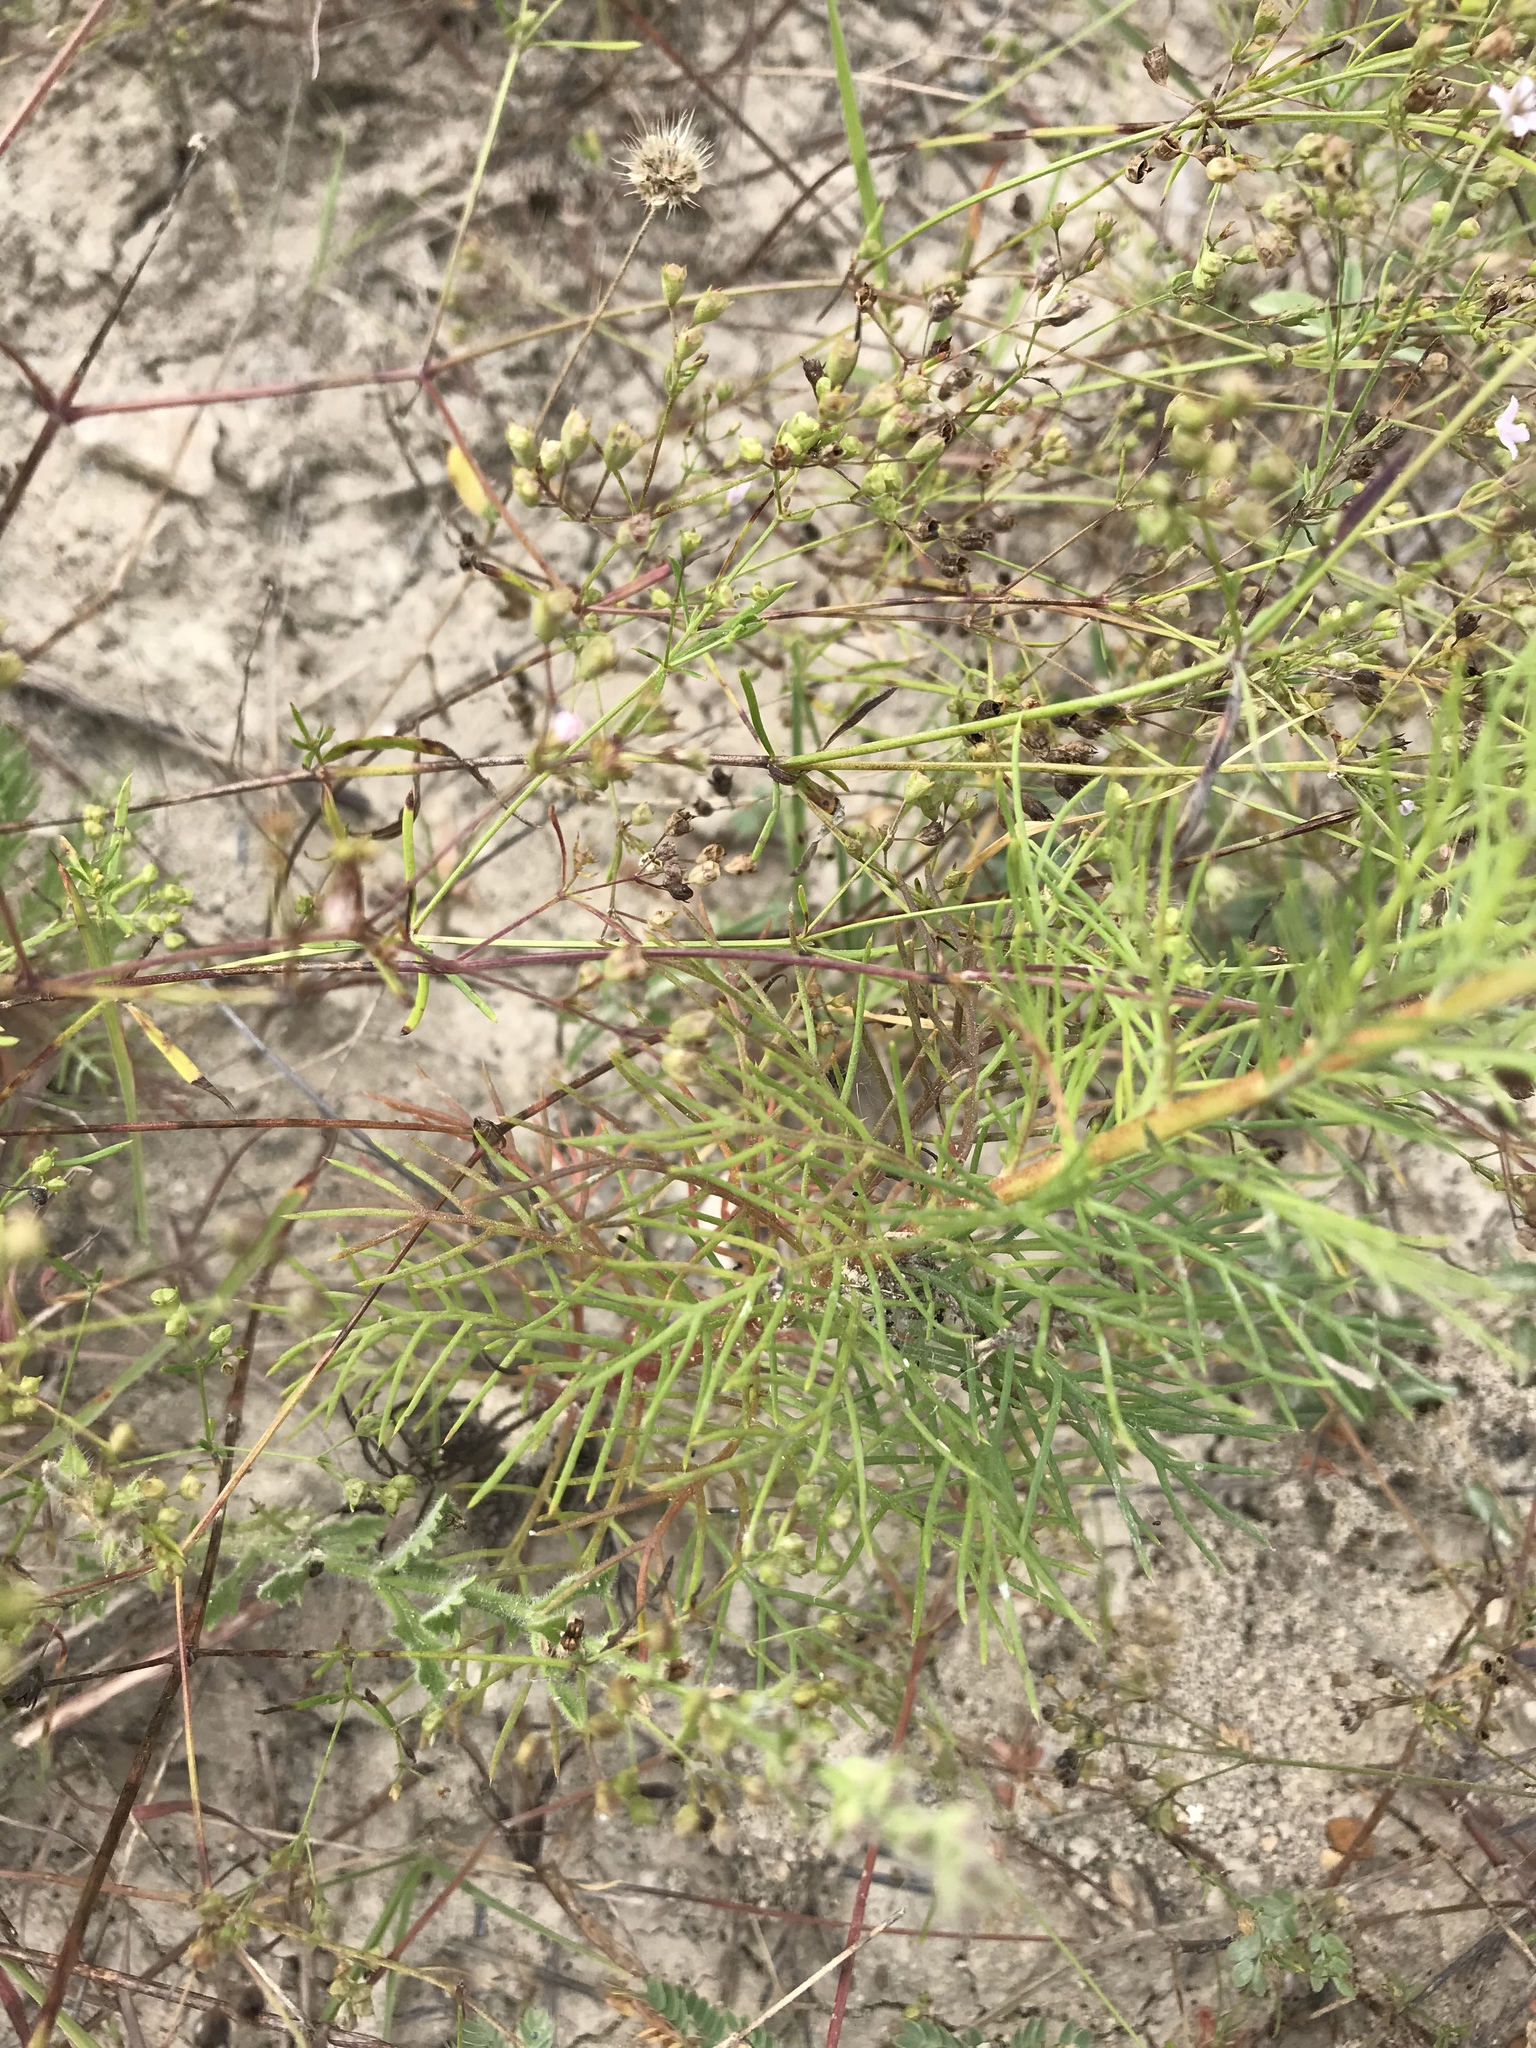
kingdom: Plantae
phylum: Tracheophyta
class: Magnoliopsida
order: Ericales
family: Polemoniaceae
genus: Ipomopsis
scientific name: Ipomopsis rubra
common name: Skyrocket
